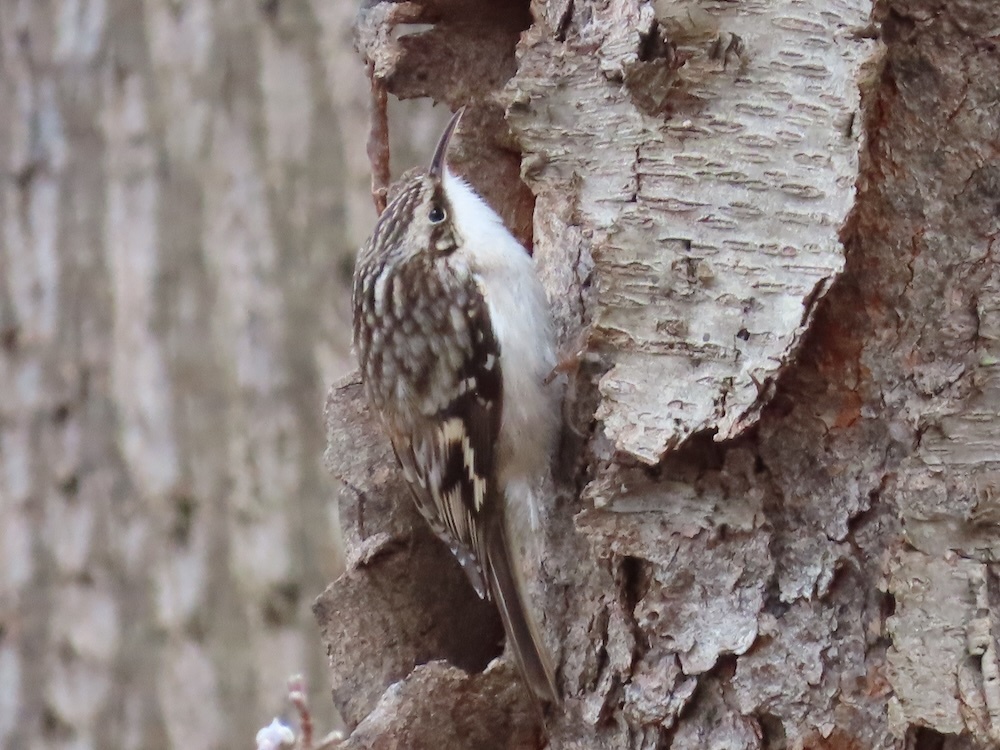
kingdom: Animalia
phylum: Chordata
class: Aves
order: Passeriformes
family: Certhiidae
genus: Certhia
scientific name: Certhia americana
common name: Brown creeper
